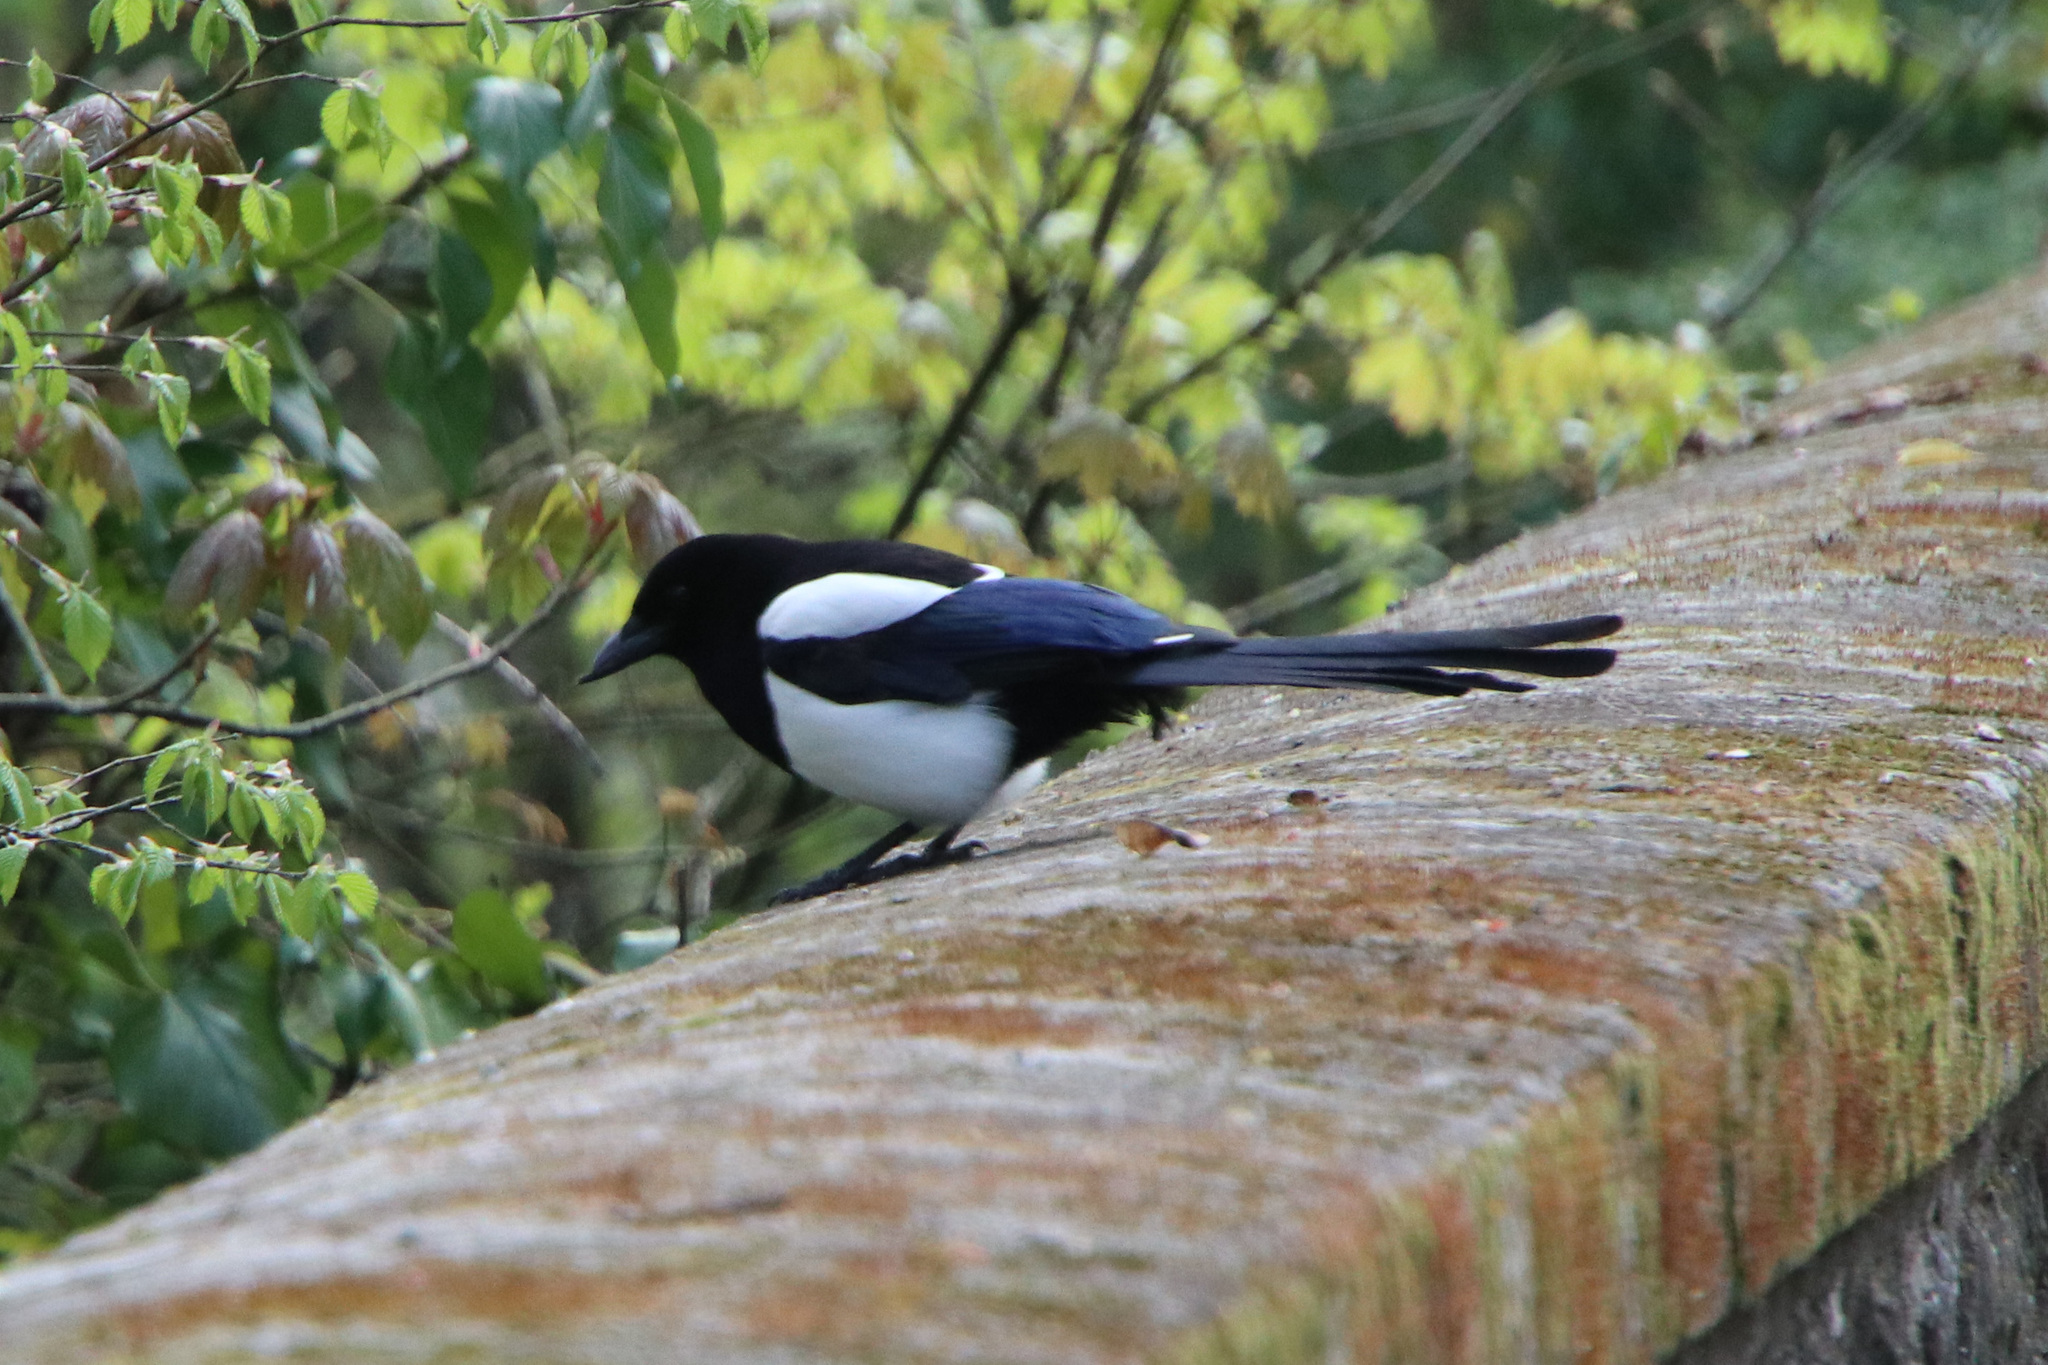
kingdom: Animalia
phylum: Chordata
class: Aves
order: Passeriformes
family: Corvidae
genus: Pica
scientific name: Pica pica
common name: Eurasian magpie
